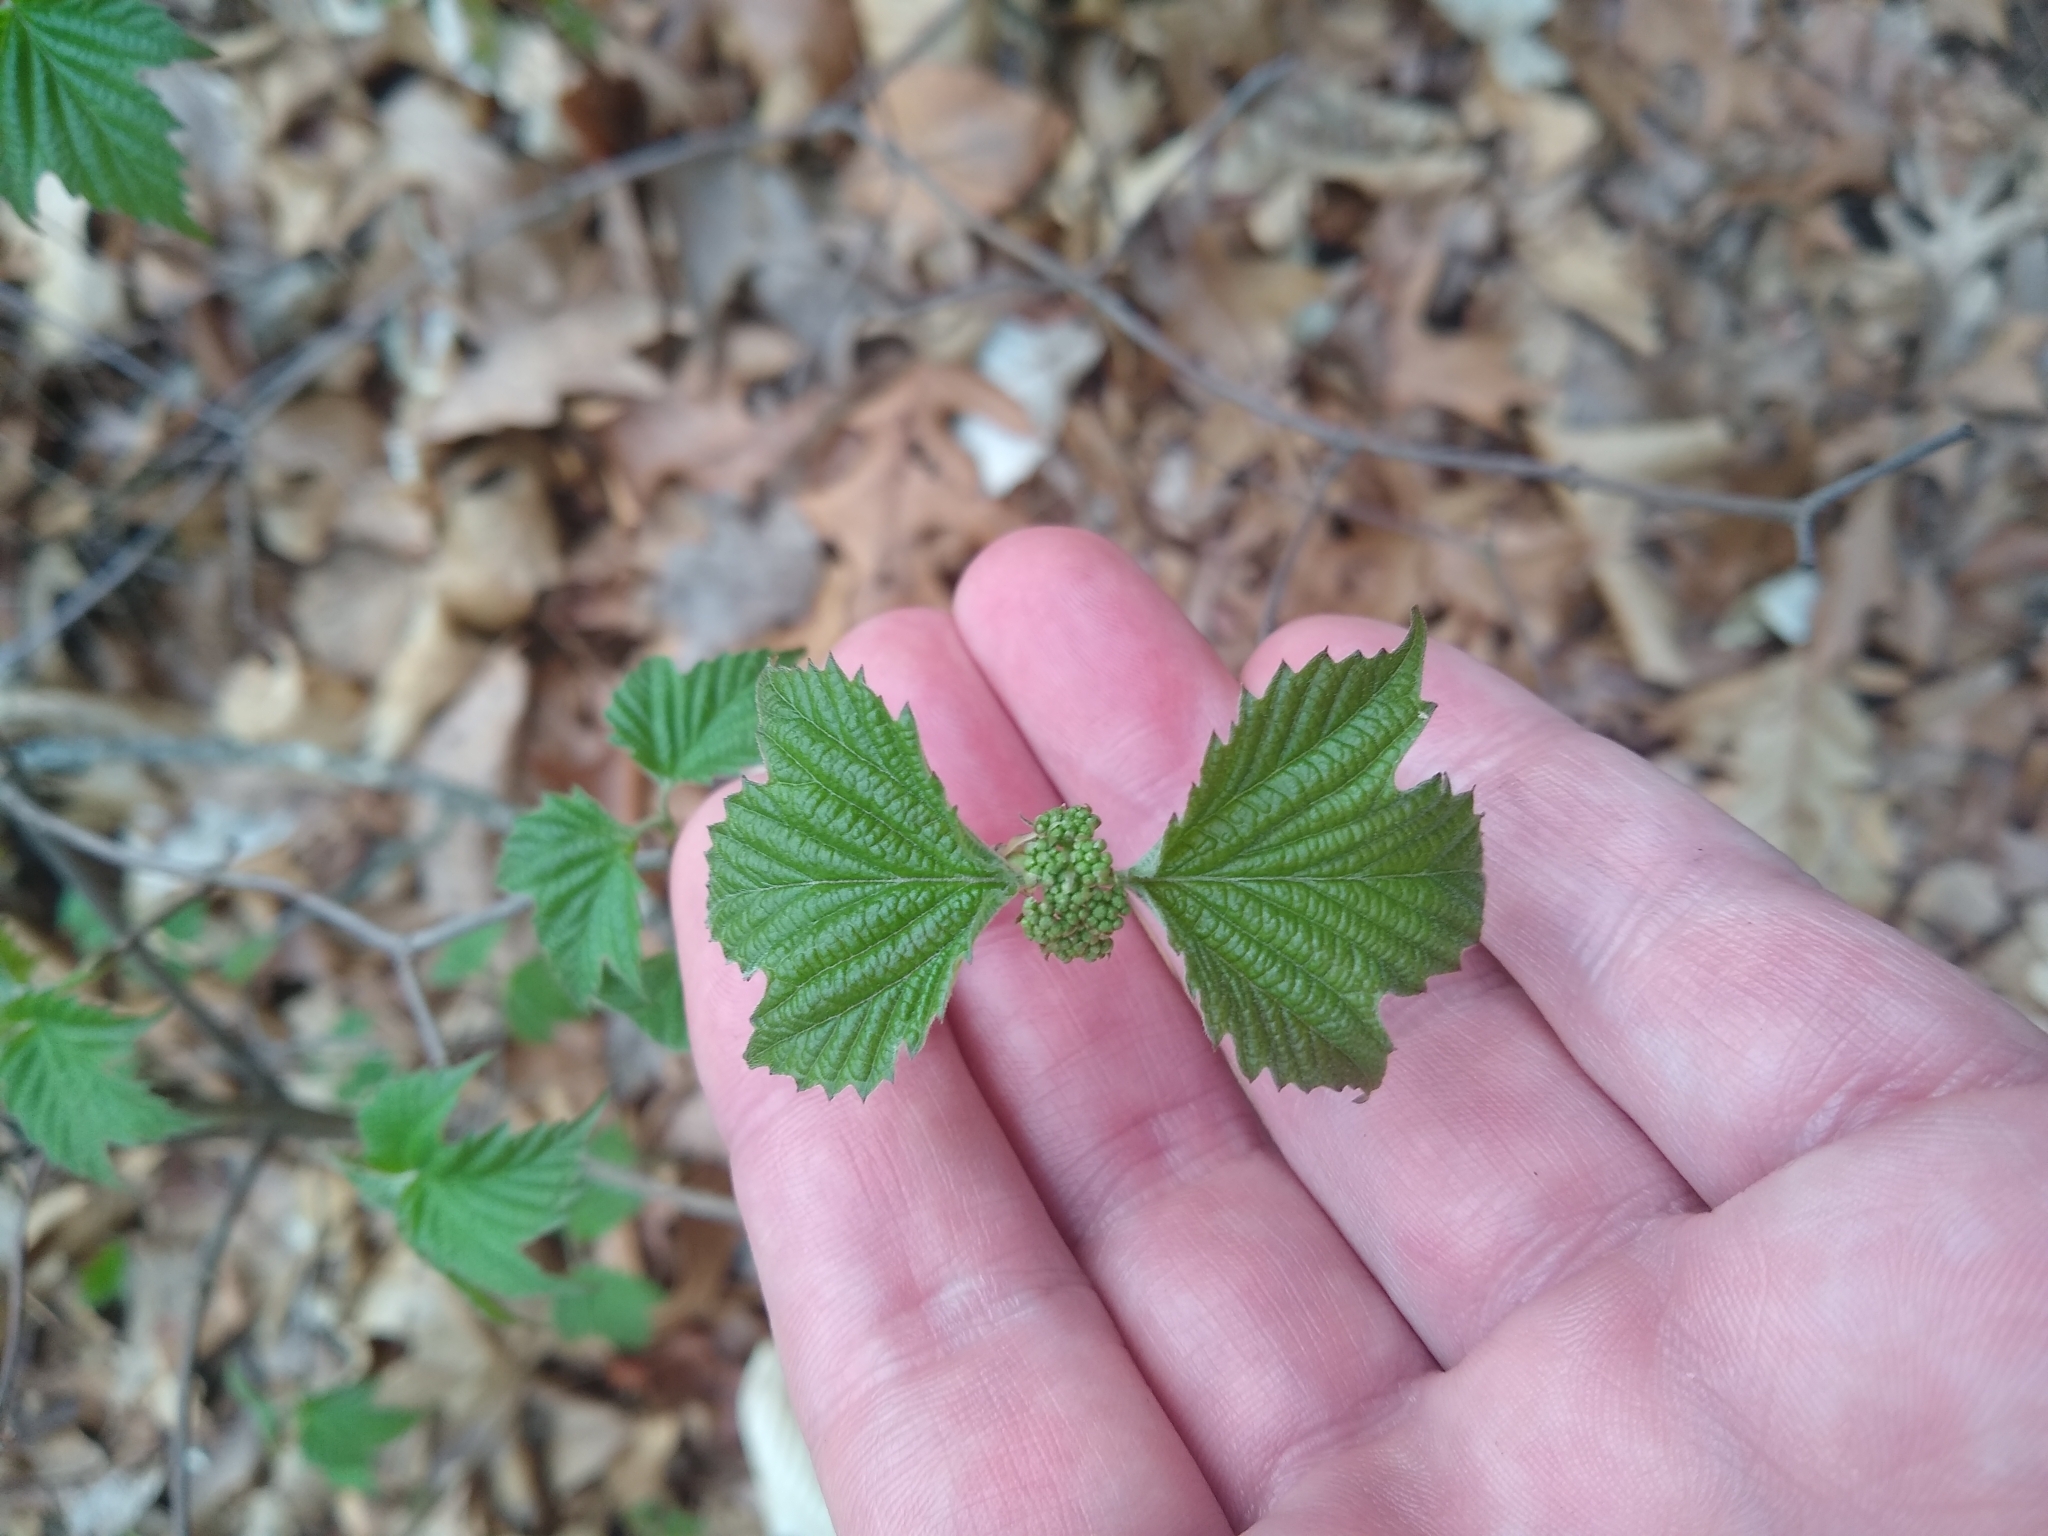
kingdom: Plantae
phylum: Tracheophyta
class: Magnoliopsida
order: Dipsacales
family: Viburnaceae
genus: Viburnum
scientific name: Viburnum acerifolium
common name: Dockmackie
